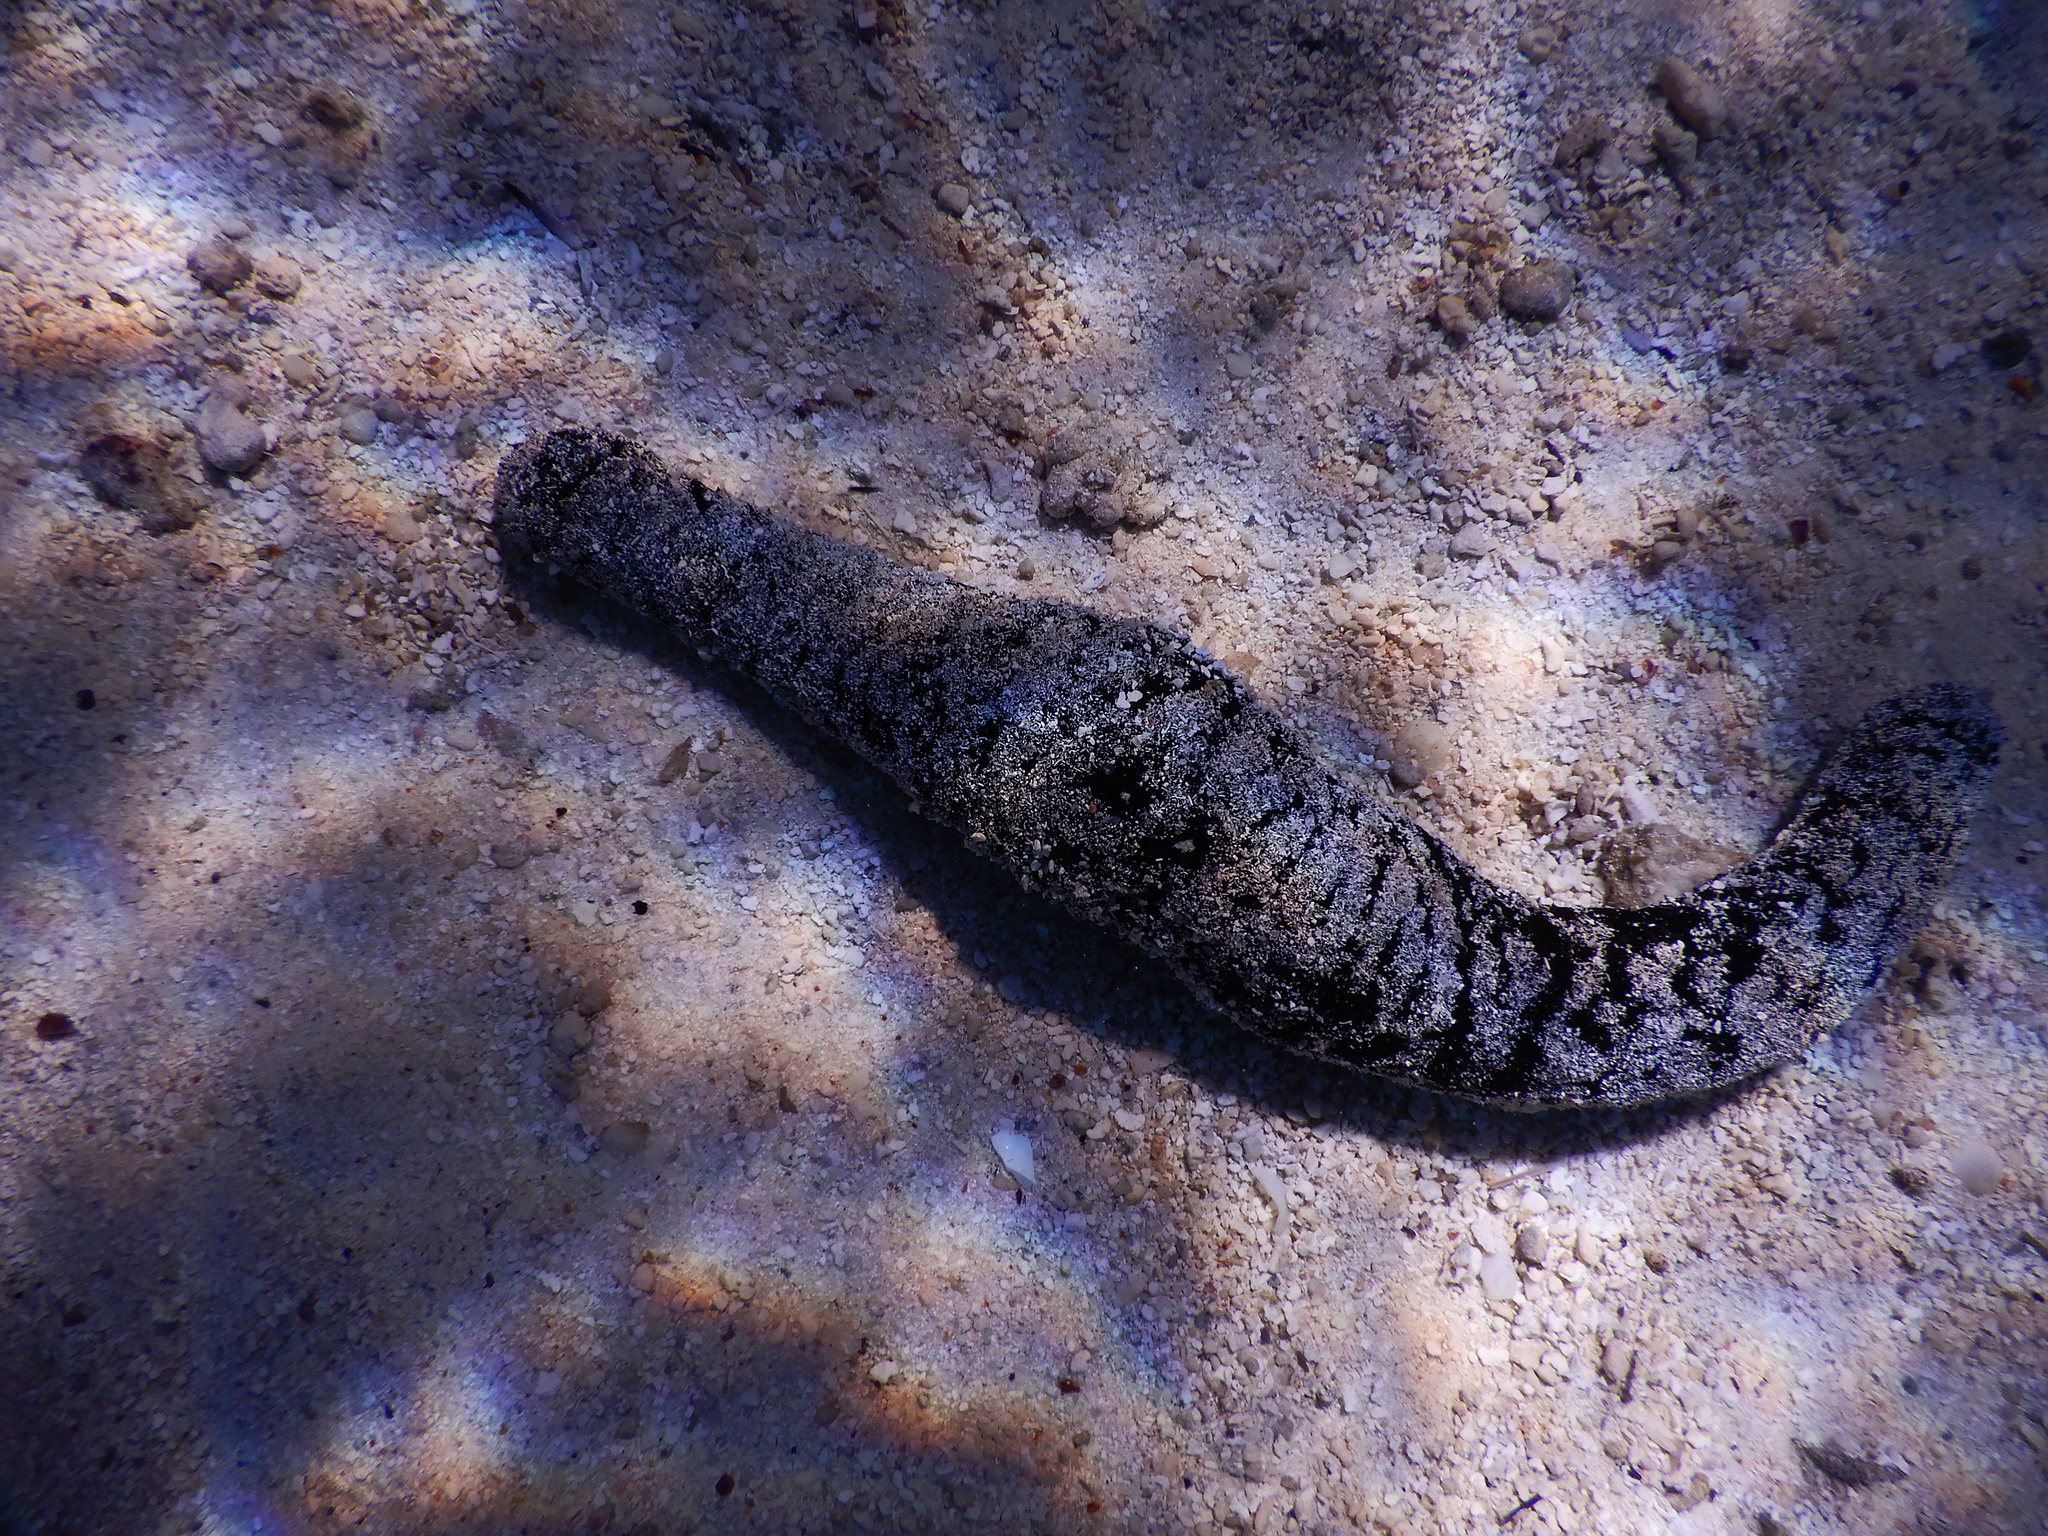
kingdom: Animalia
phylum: Echinodermata
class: Holothuroidea
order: Holothuriida
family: Holothuriidae
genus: Holothuria
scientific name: Holothuria atra
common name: Lollyfish
